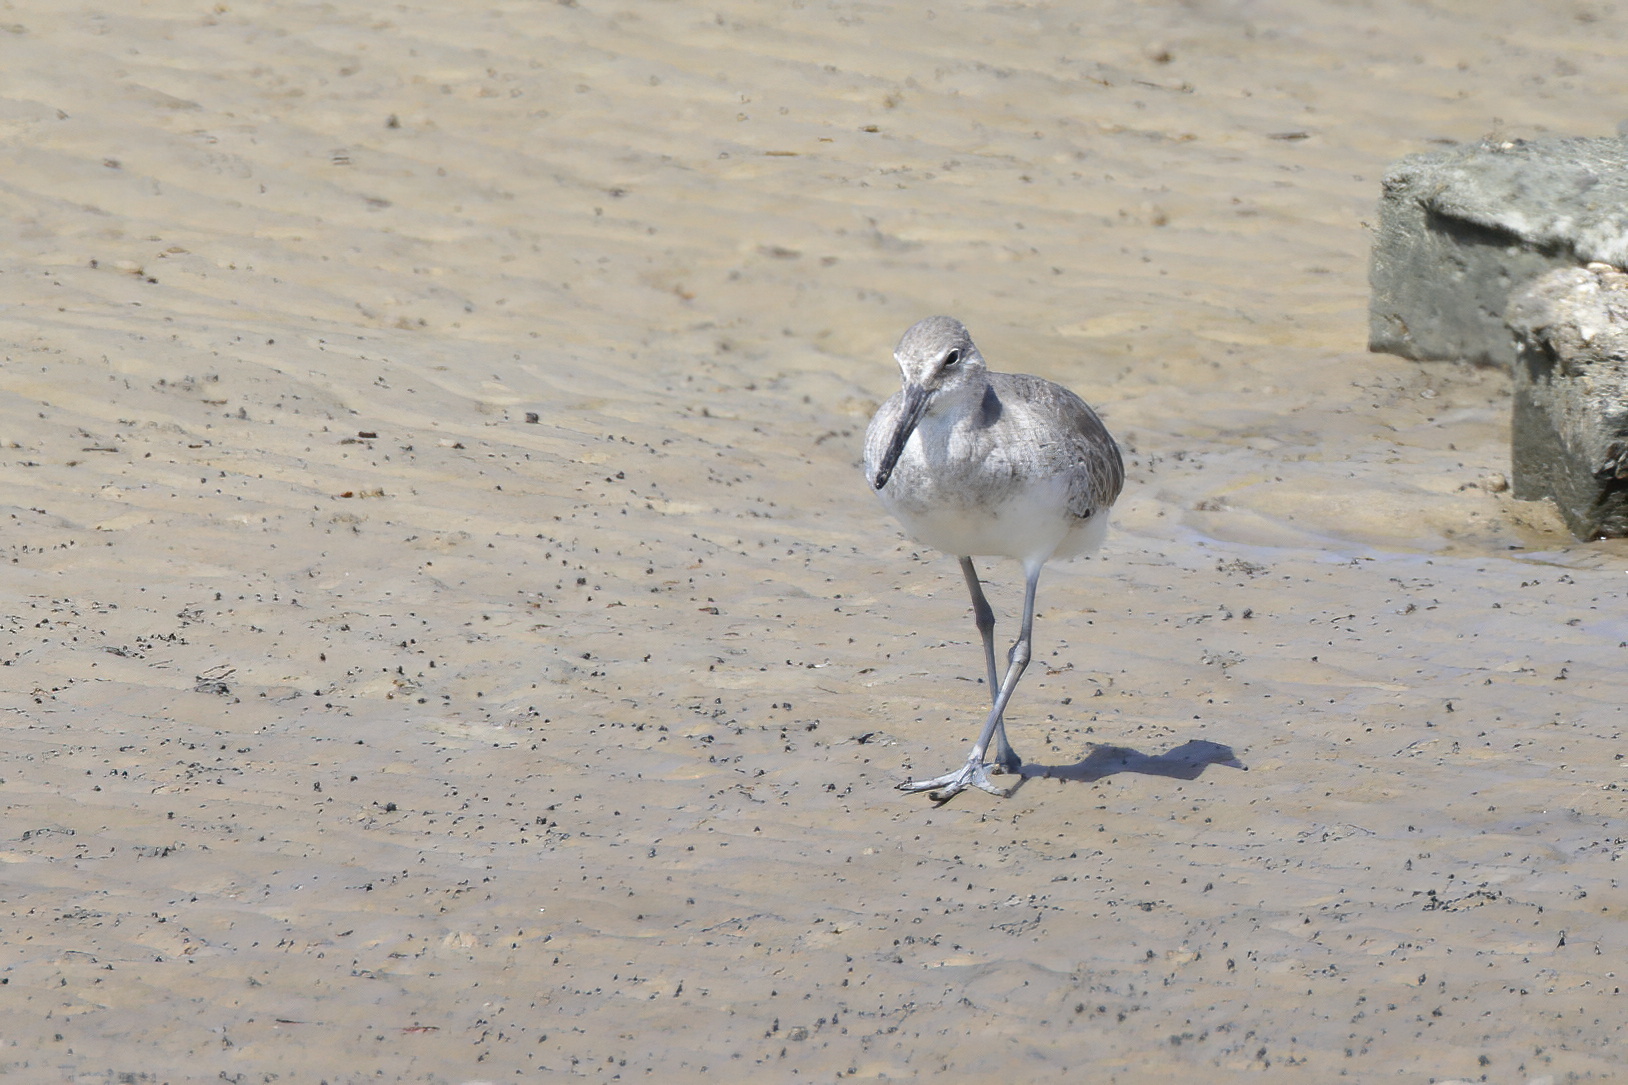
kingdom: Animalia
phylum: Chordata
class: Aves
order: Charadriiformes
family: Scolopacidae
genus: Tringa
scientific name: Tringa semipalmata
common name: Willet
